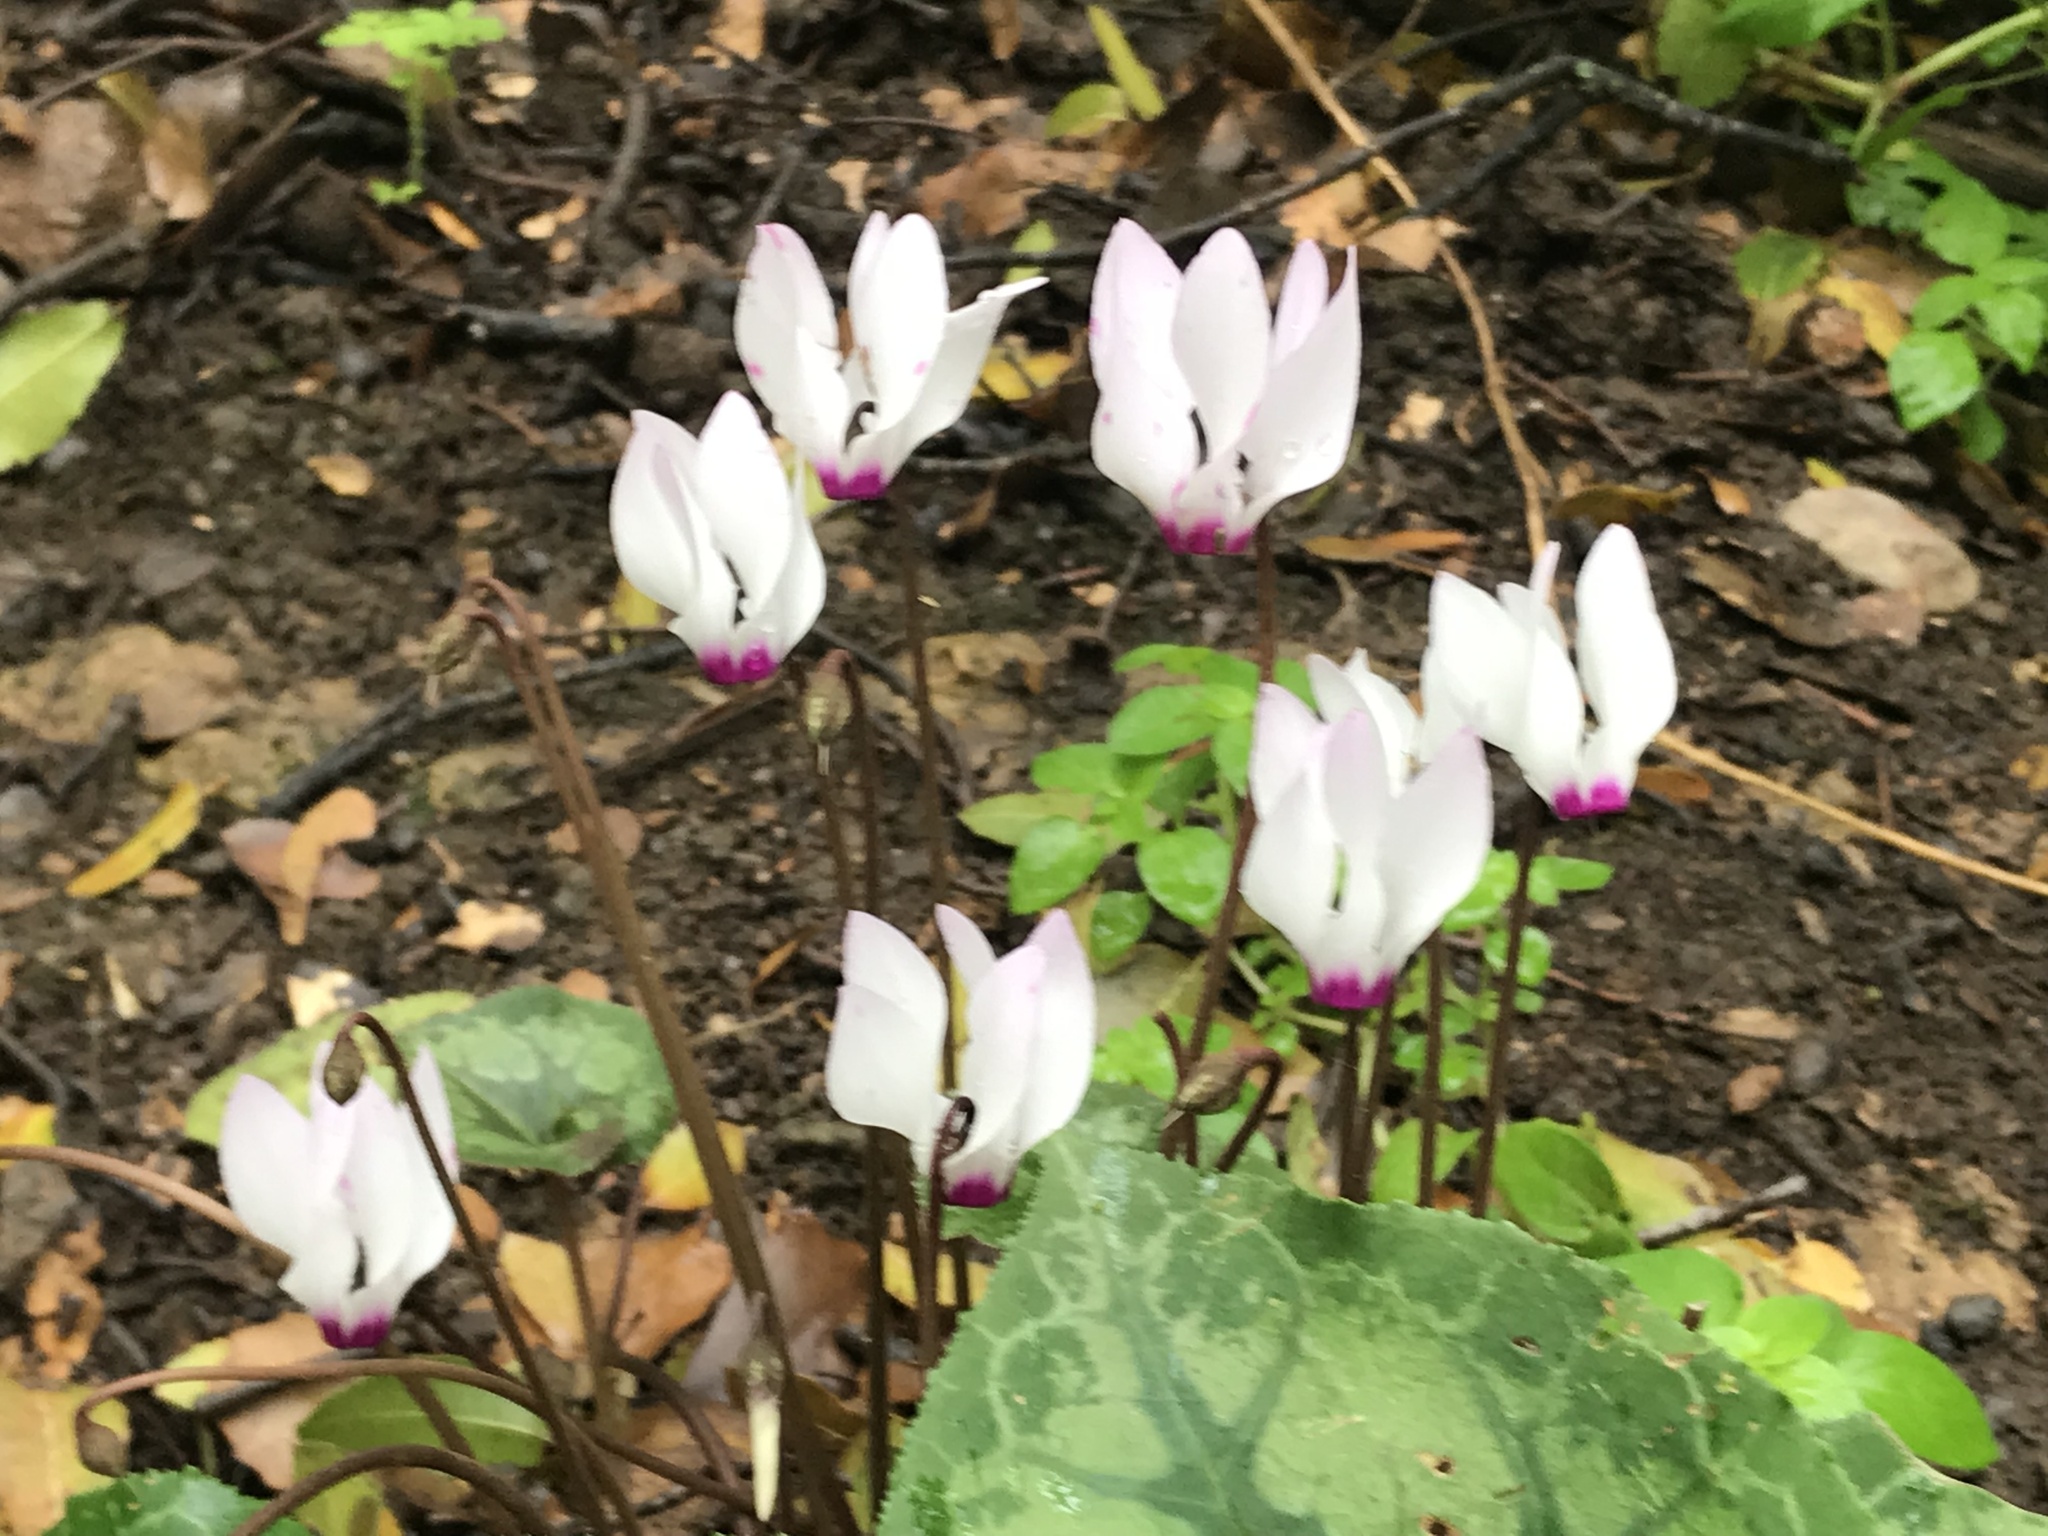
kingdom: Plantae
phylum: Tracheophyta
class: Magnoliopsida
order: Ericales
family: Primulaceae
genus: Cyclamen
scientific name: Cyclamen persicum
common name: Florist's cyclamen
